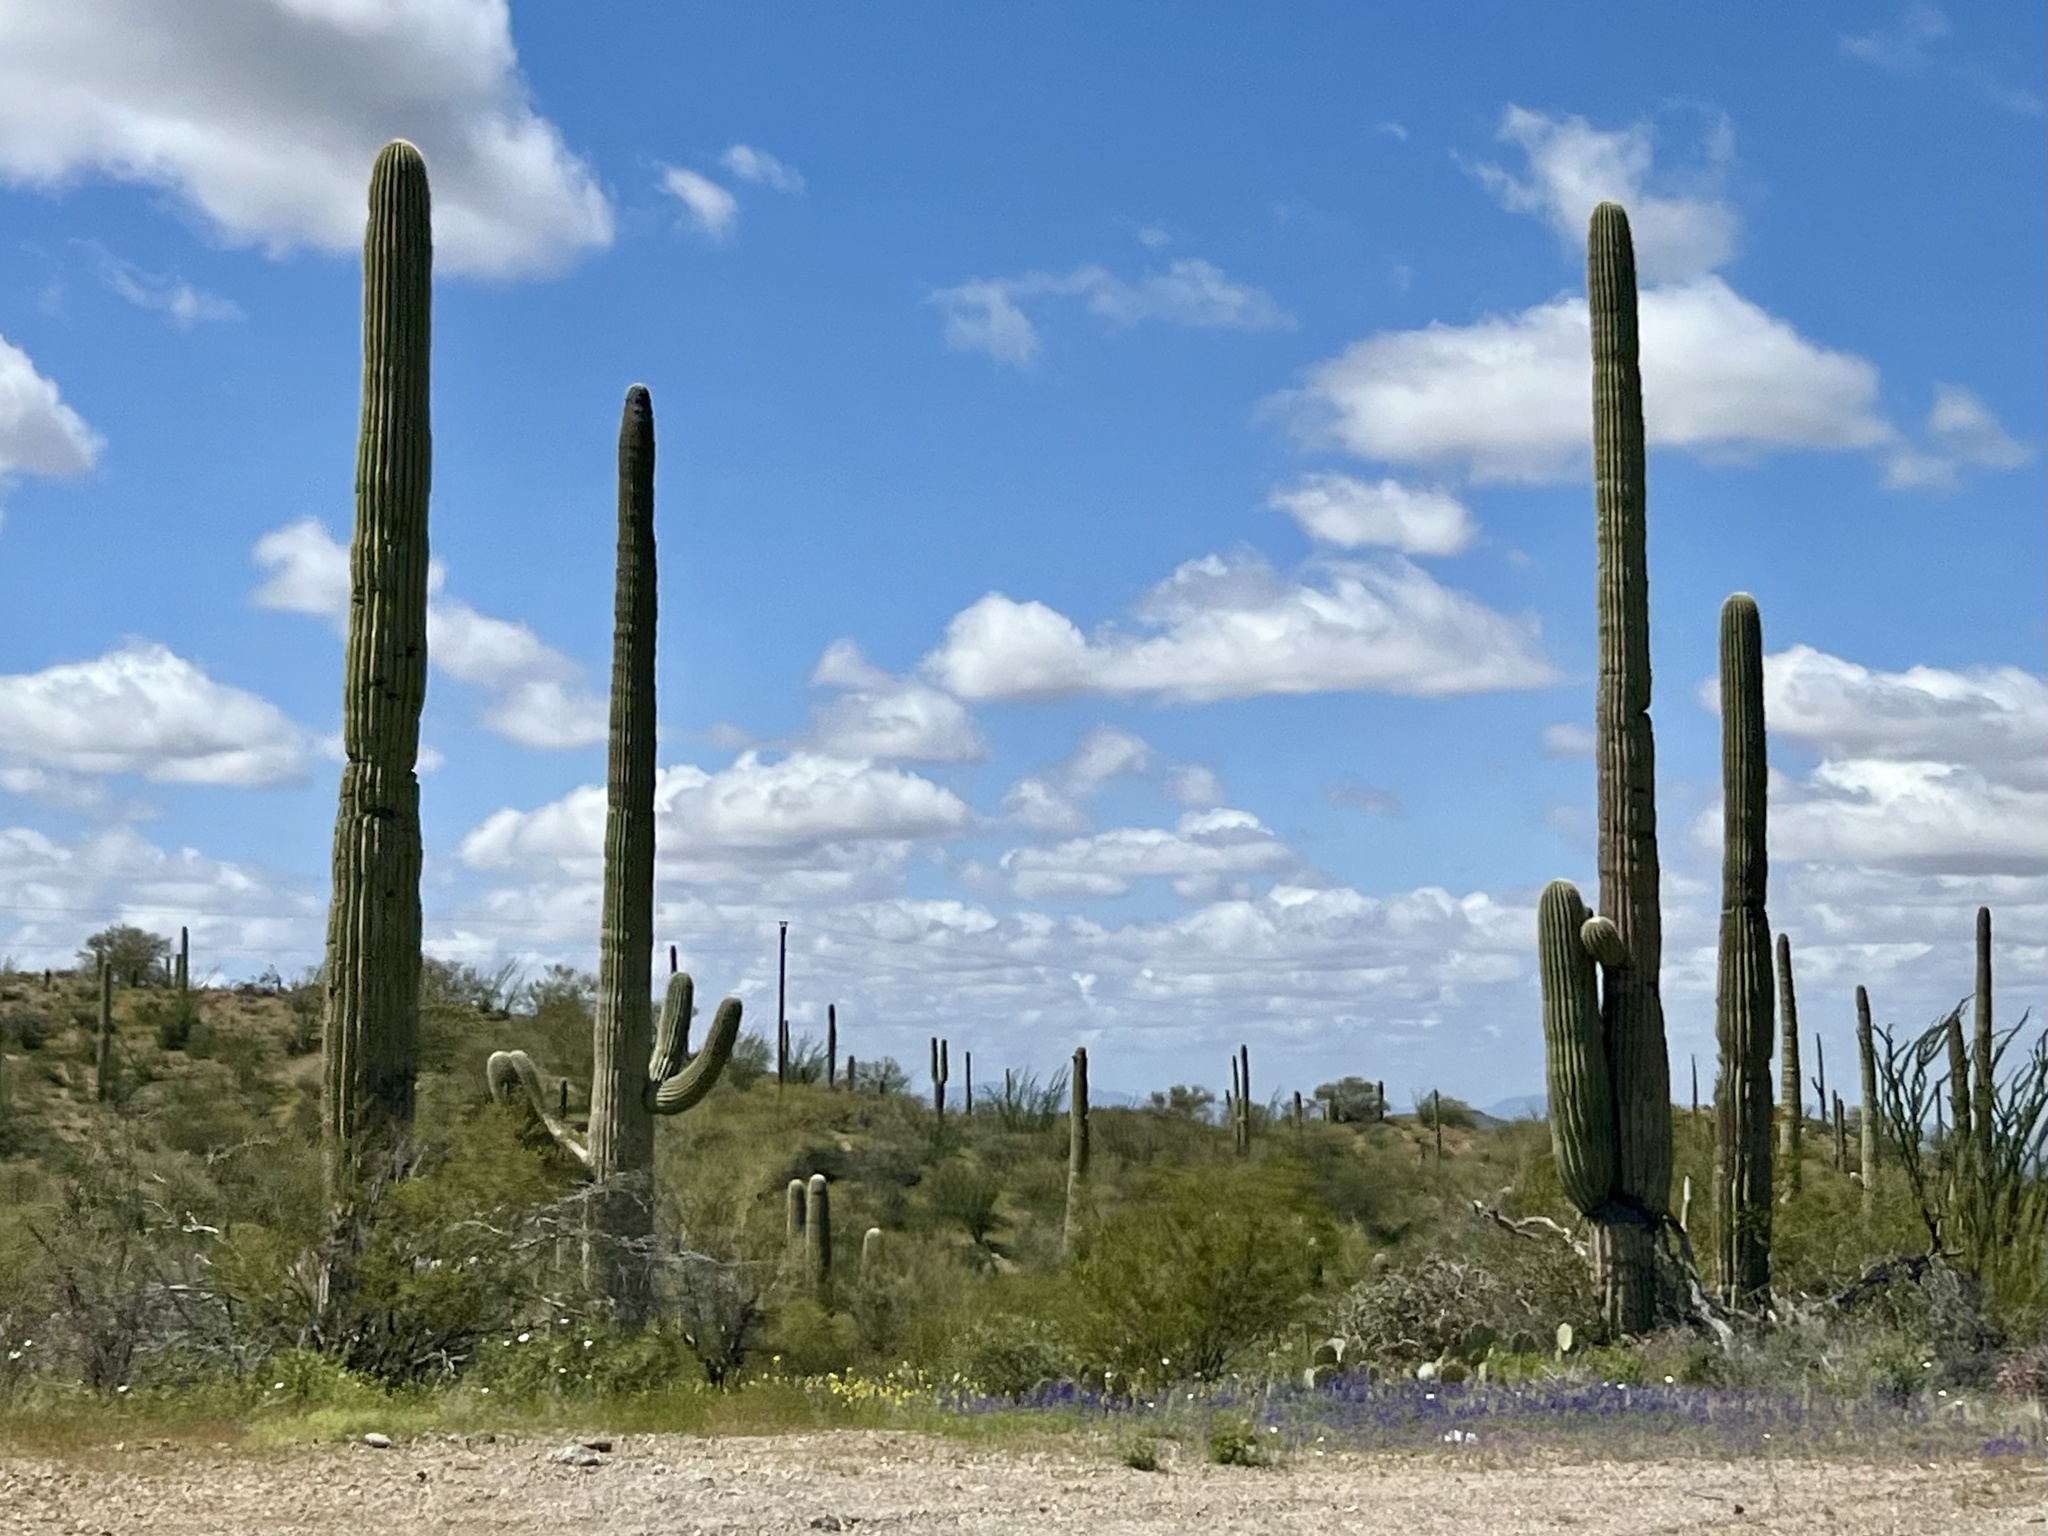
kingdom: Plantae
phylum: Tracheophyta
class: Magnoliopsida
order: Caryophyllales
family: Cactaceae
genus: Carnegiea
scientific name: Carnegiea gigantea
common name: Saguaro
